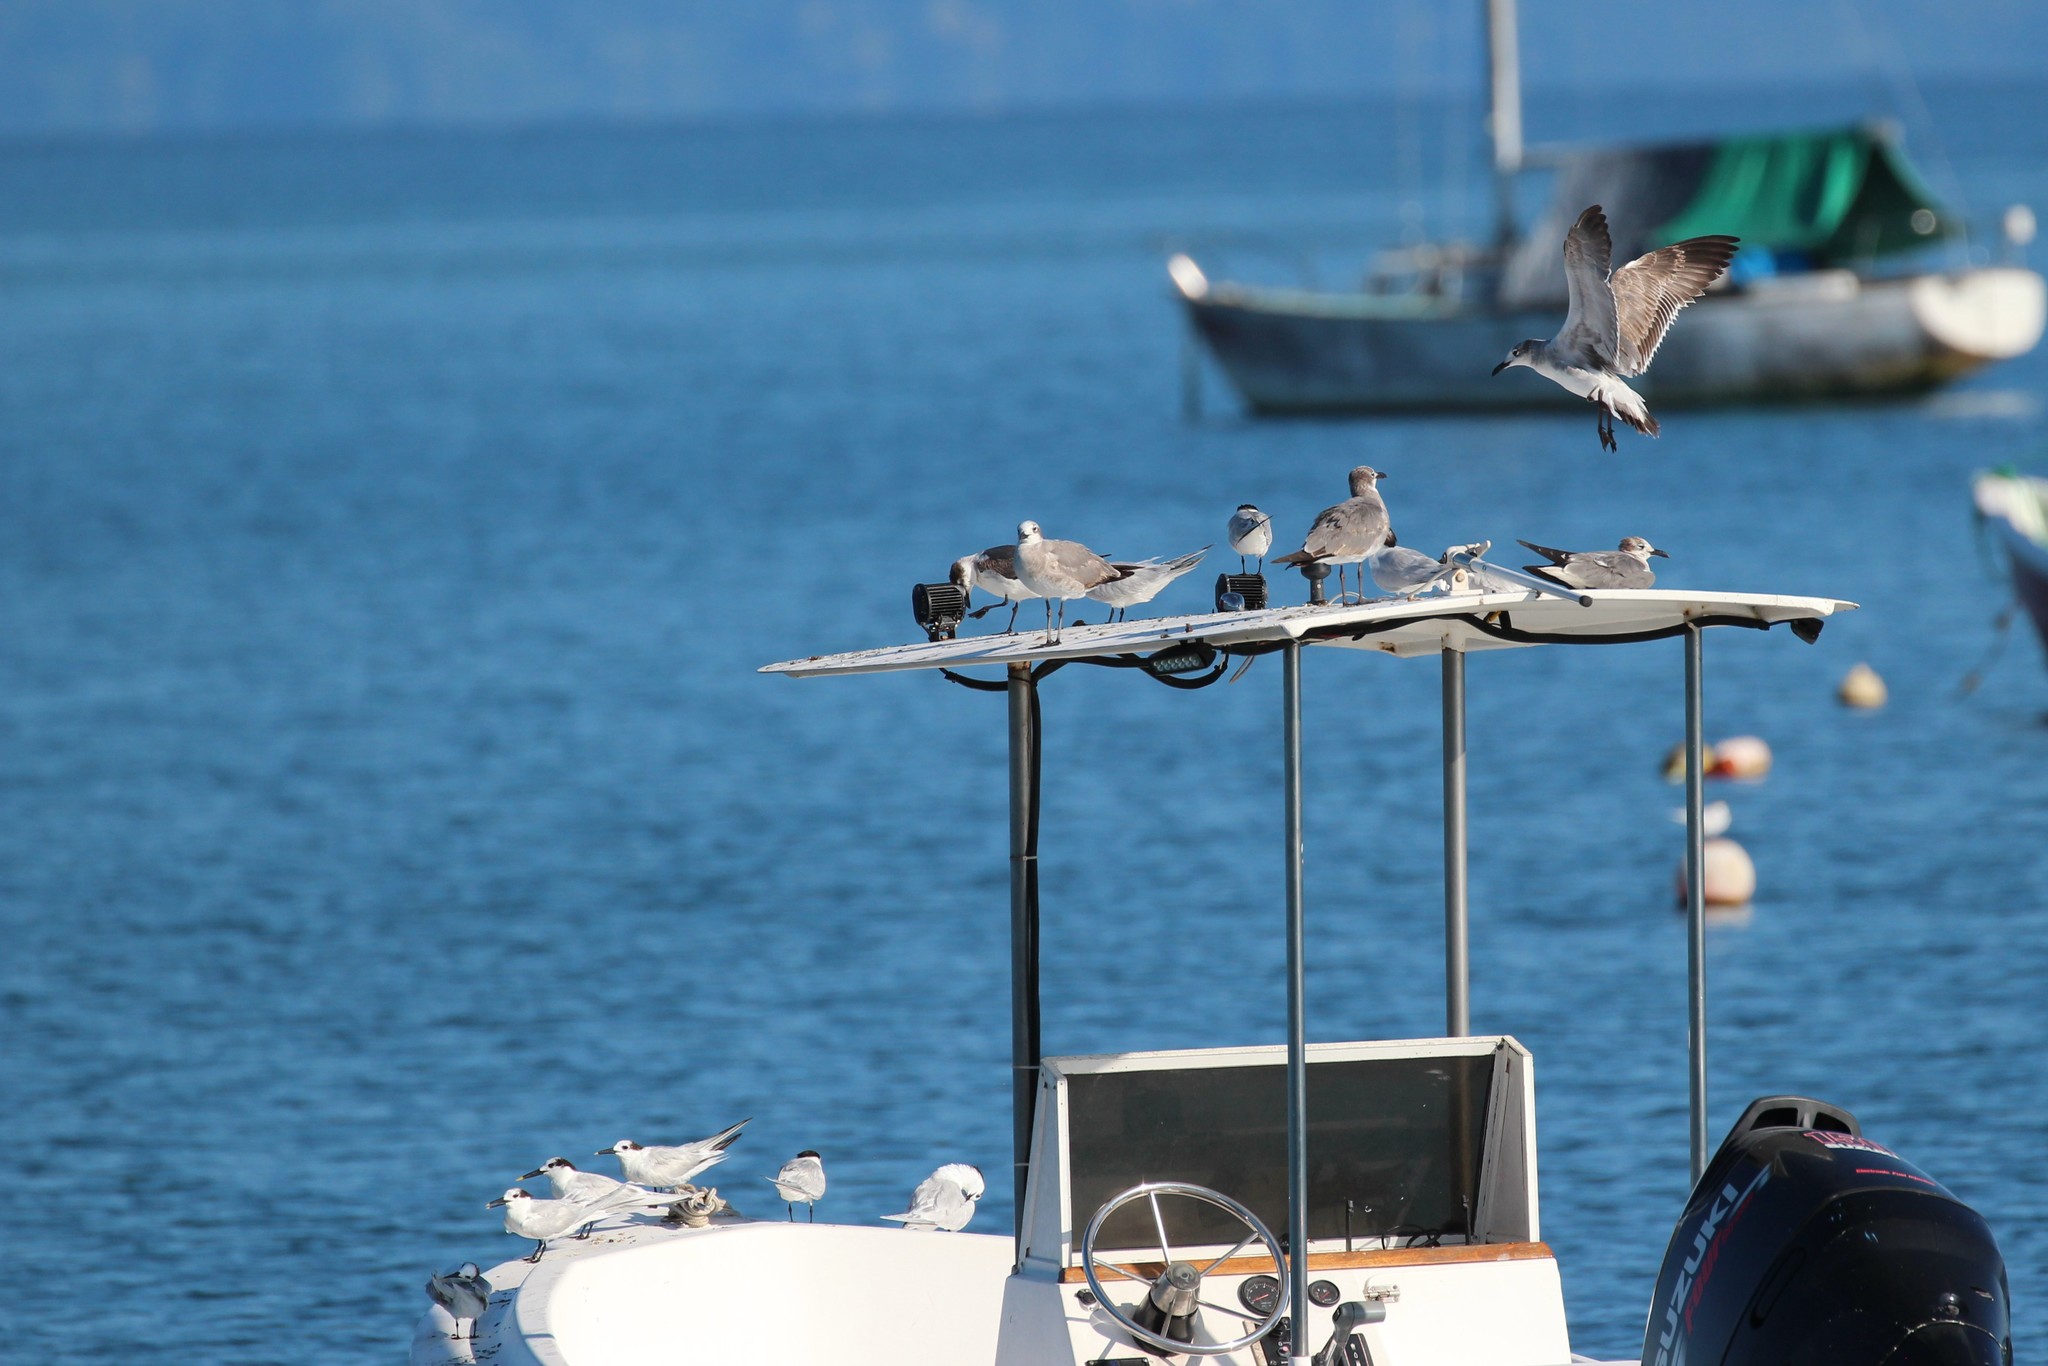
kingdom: Animalia
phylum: Chordata
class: Aves
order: Charadriiformes
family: Laridae
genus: Leucophaeus
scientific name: Leucophaeus atricilla
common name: Laughing gull
